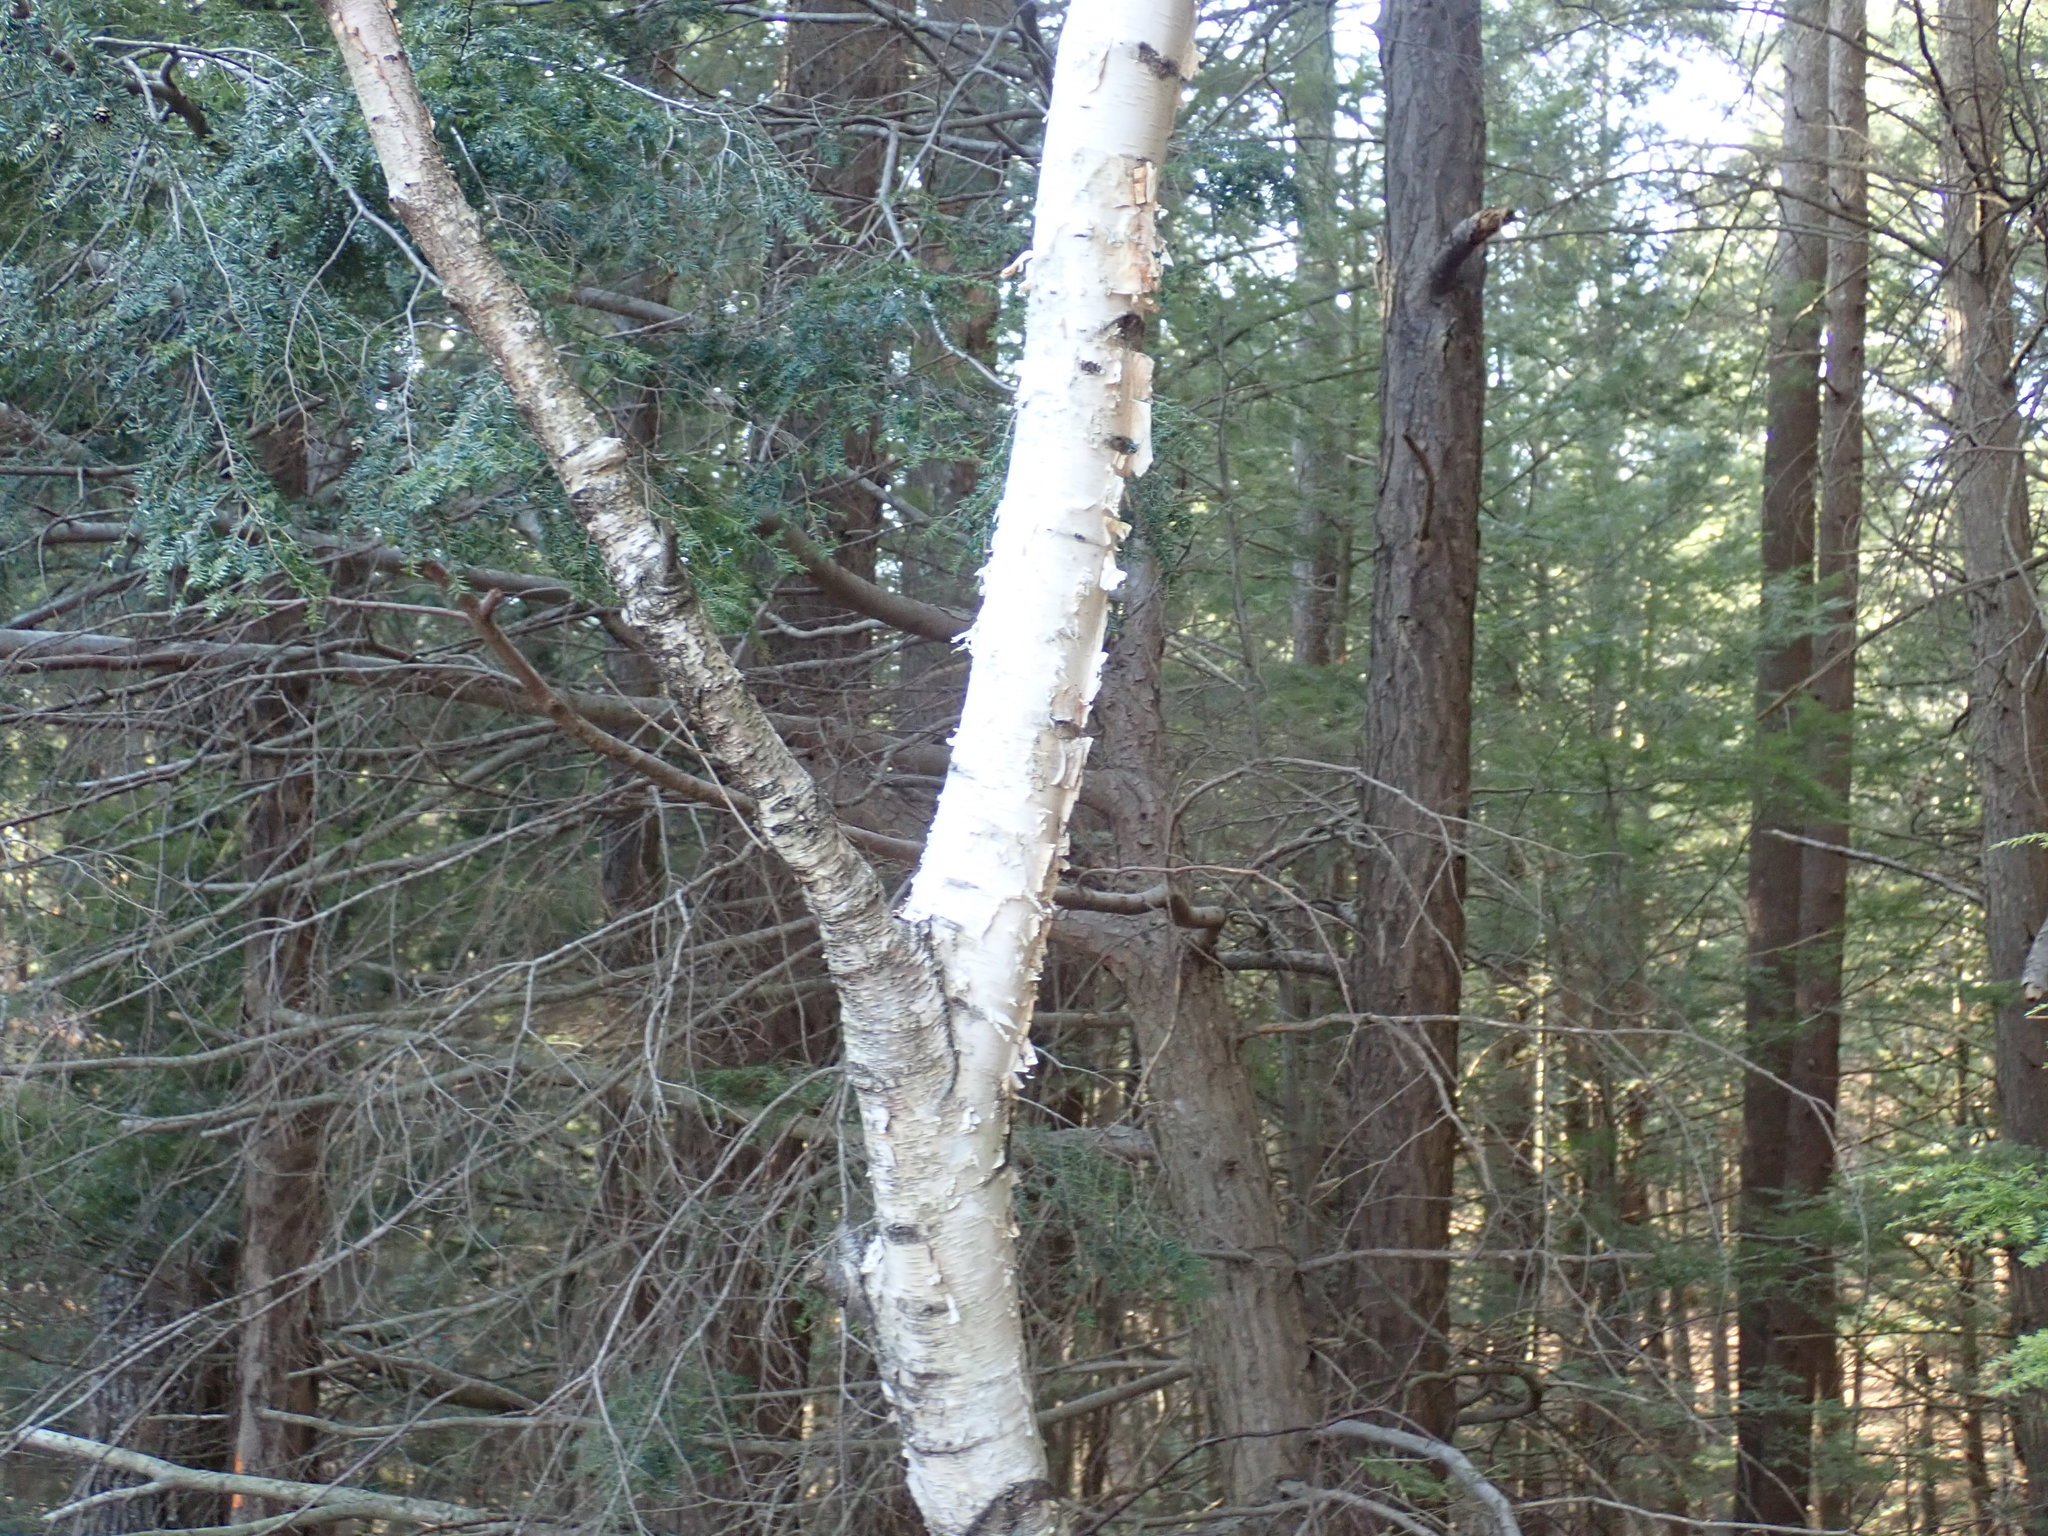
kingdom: Plantae
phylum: Tracheophyta
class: Magnoliopsida
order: Fagales
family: Betulaceae
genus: Betula
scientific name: Betula papyrifera
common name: Paper birch
